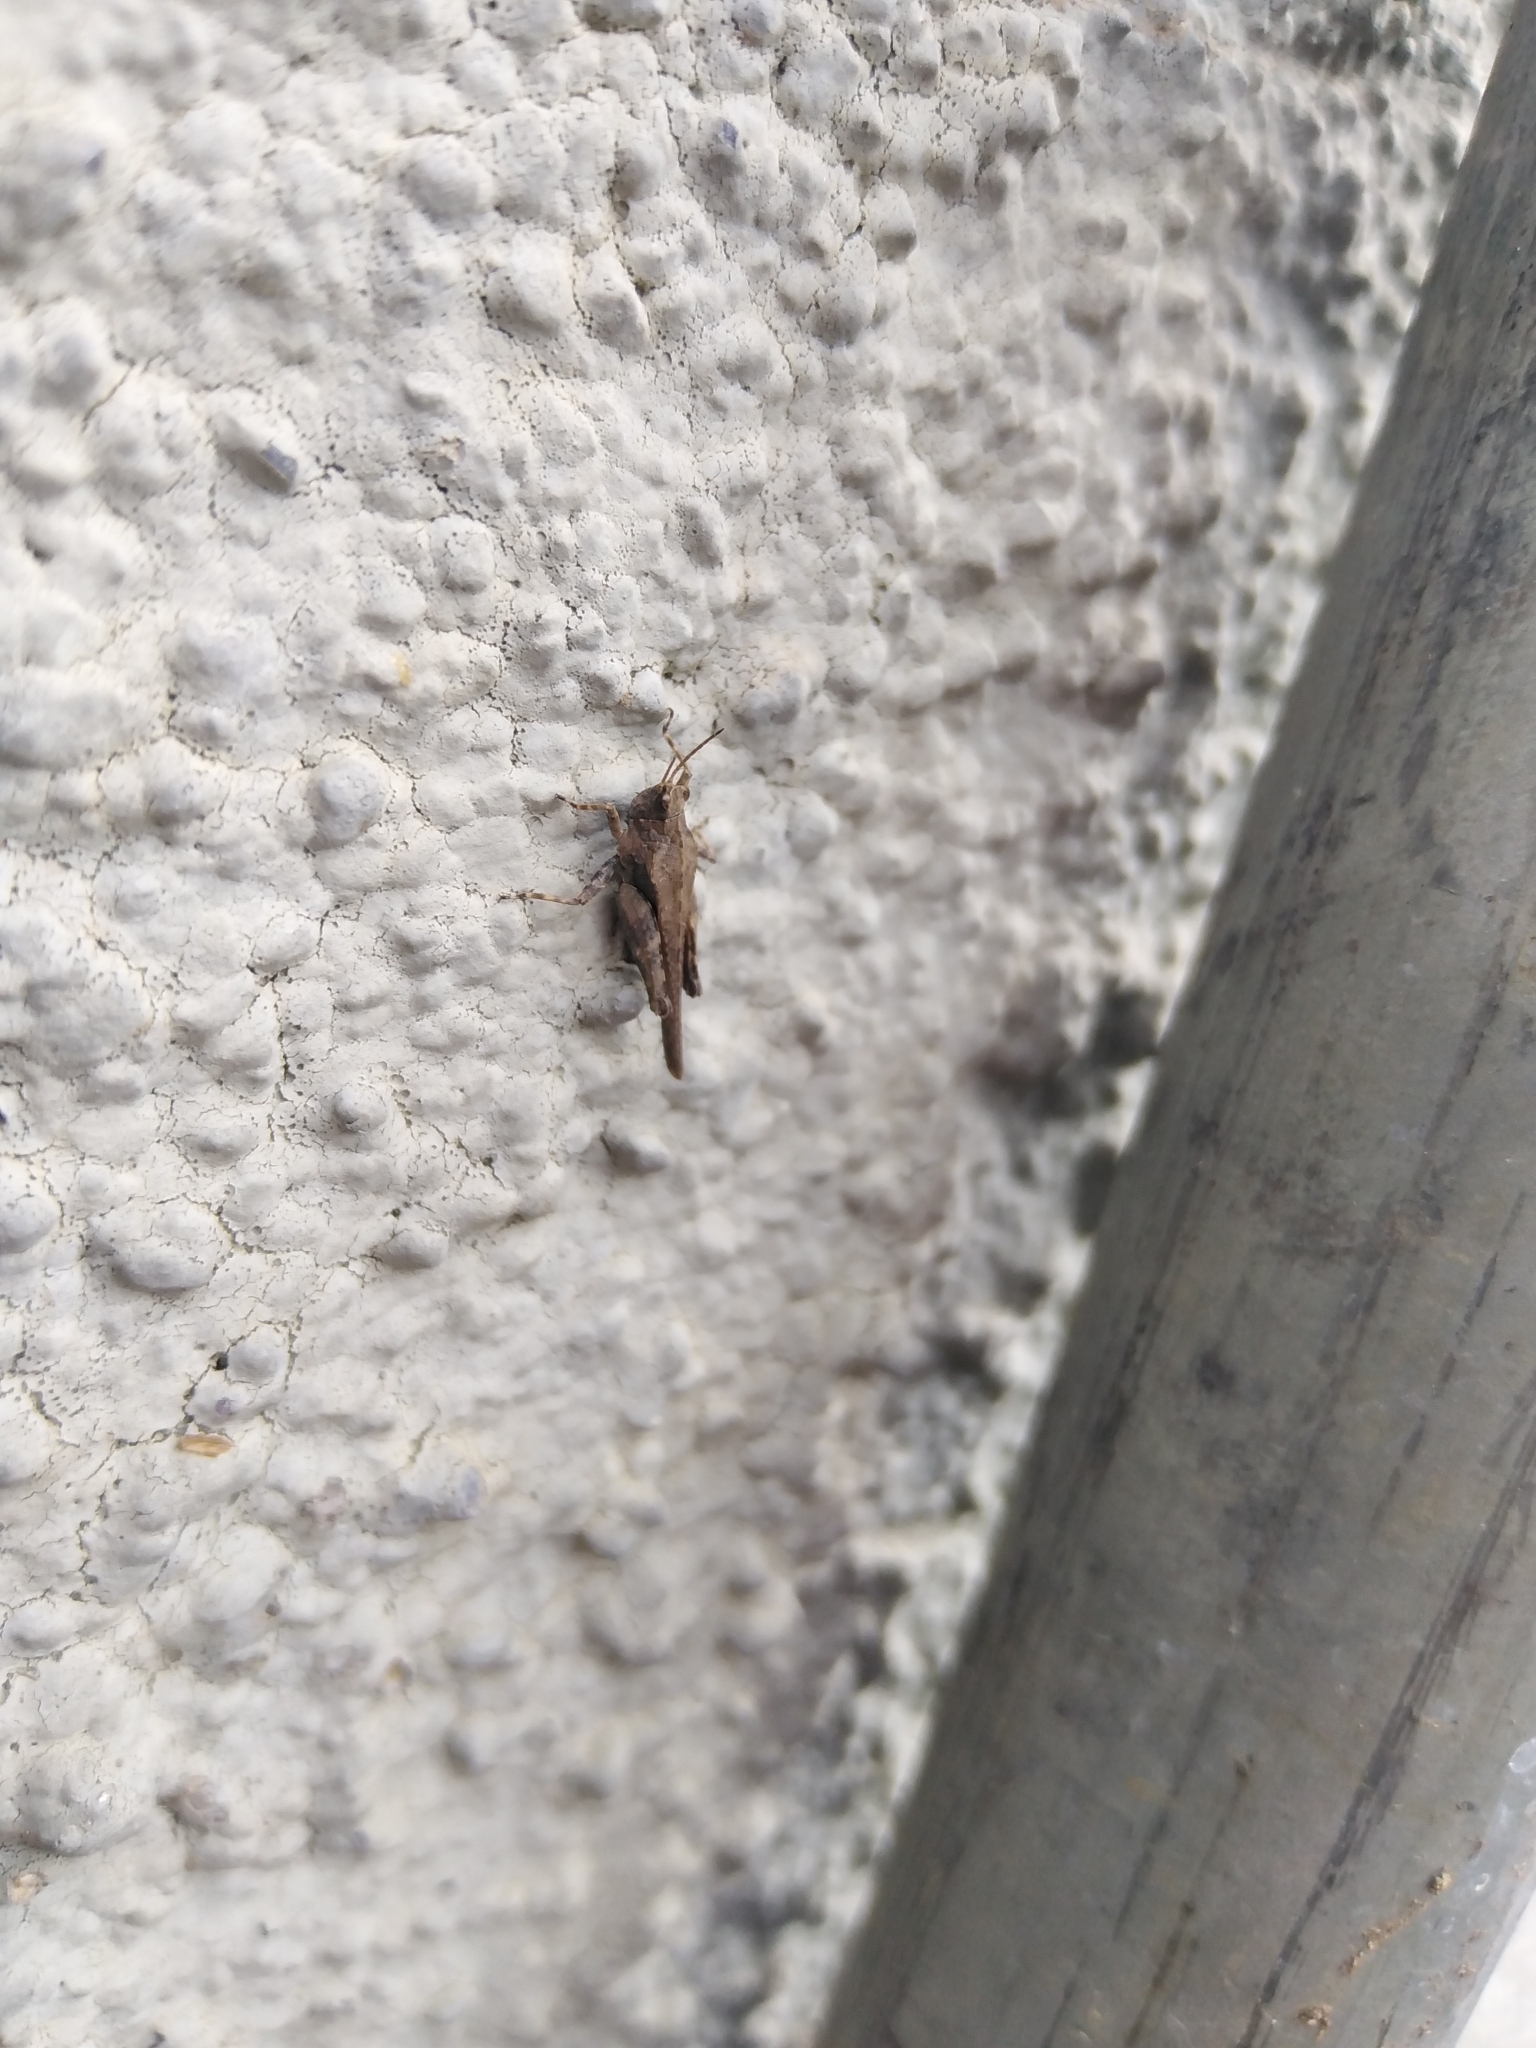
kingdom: Animalia
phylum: Arthropoda
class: Insecta
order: Orthoptera
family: Tetrigidae
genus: Tetrix
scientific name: Tetrix subulata
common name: Slender ground-hopper
